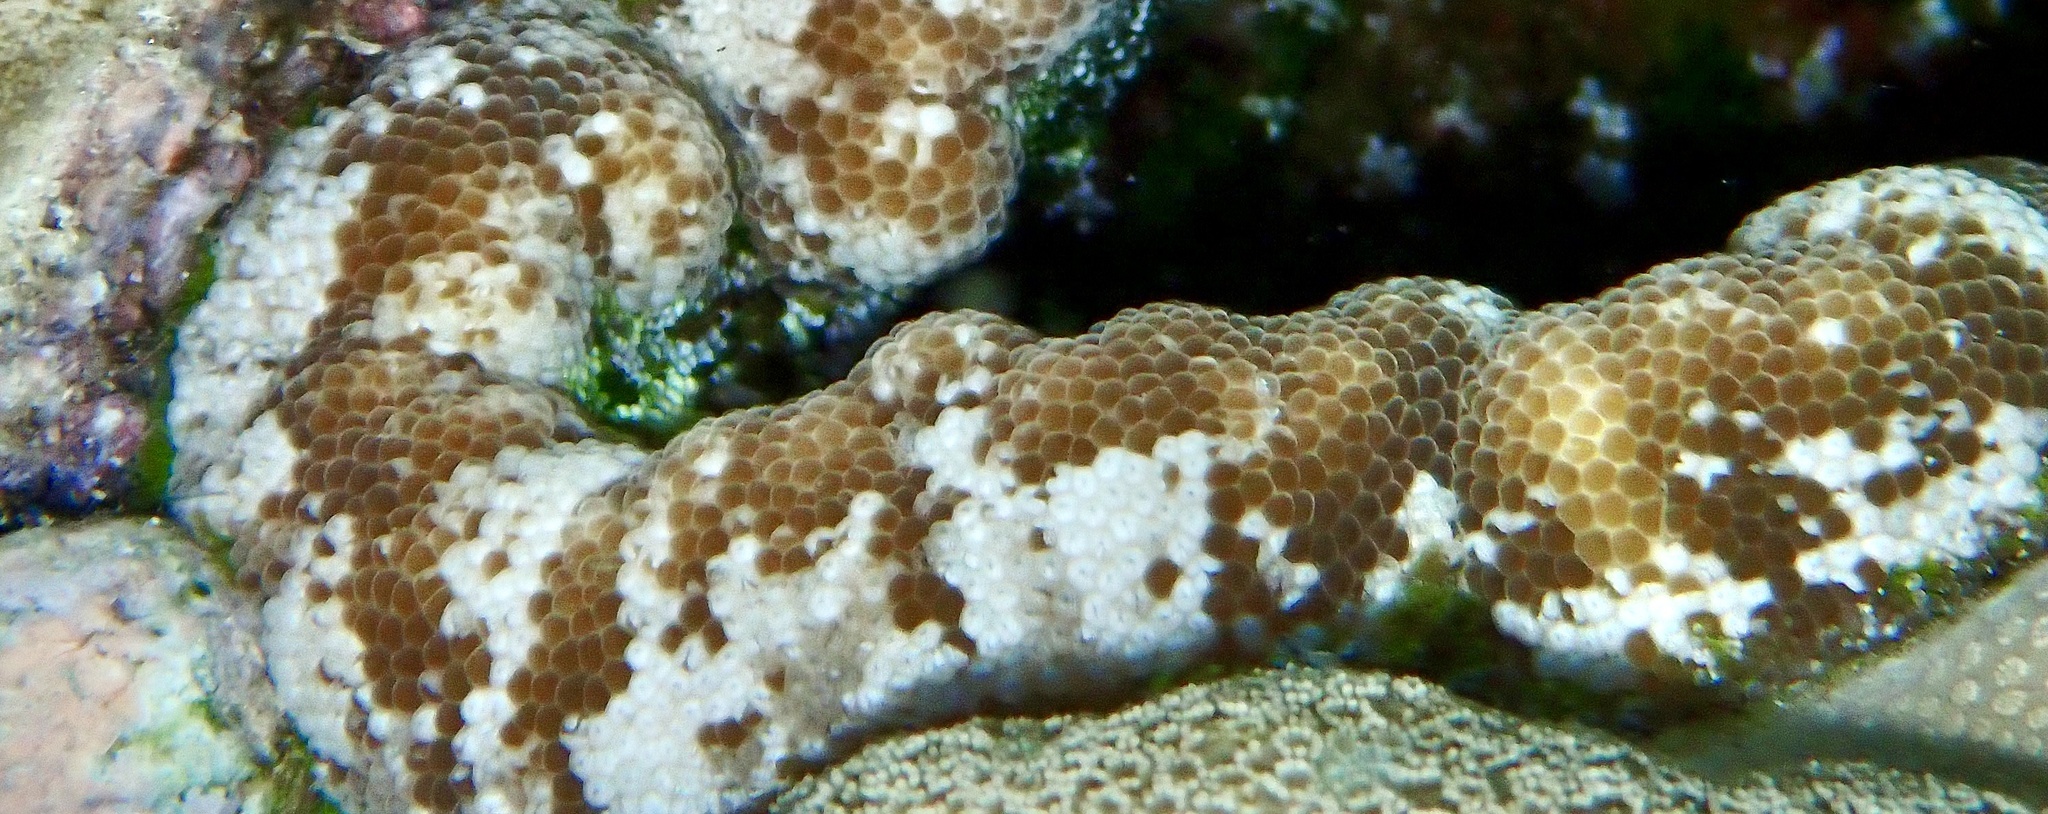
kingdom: Animalia
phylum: Cnidaria
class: Anthozoa
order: Actiniaria
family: Thalassianthidae
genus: Cryptodendrum
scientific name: Cryptodendrum adhaesivum
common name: Adhesive sea anemone
